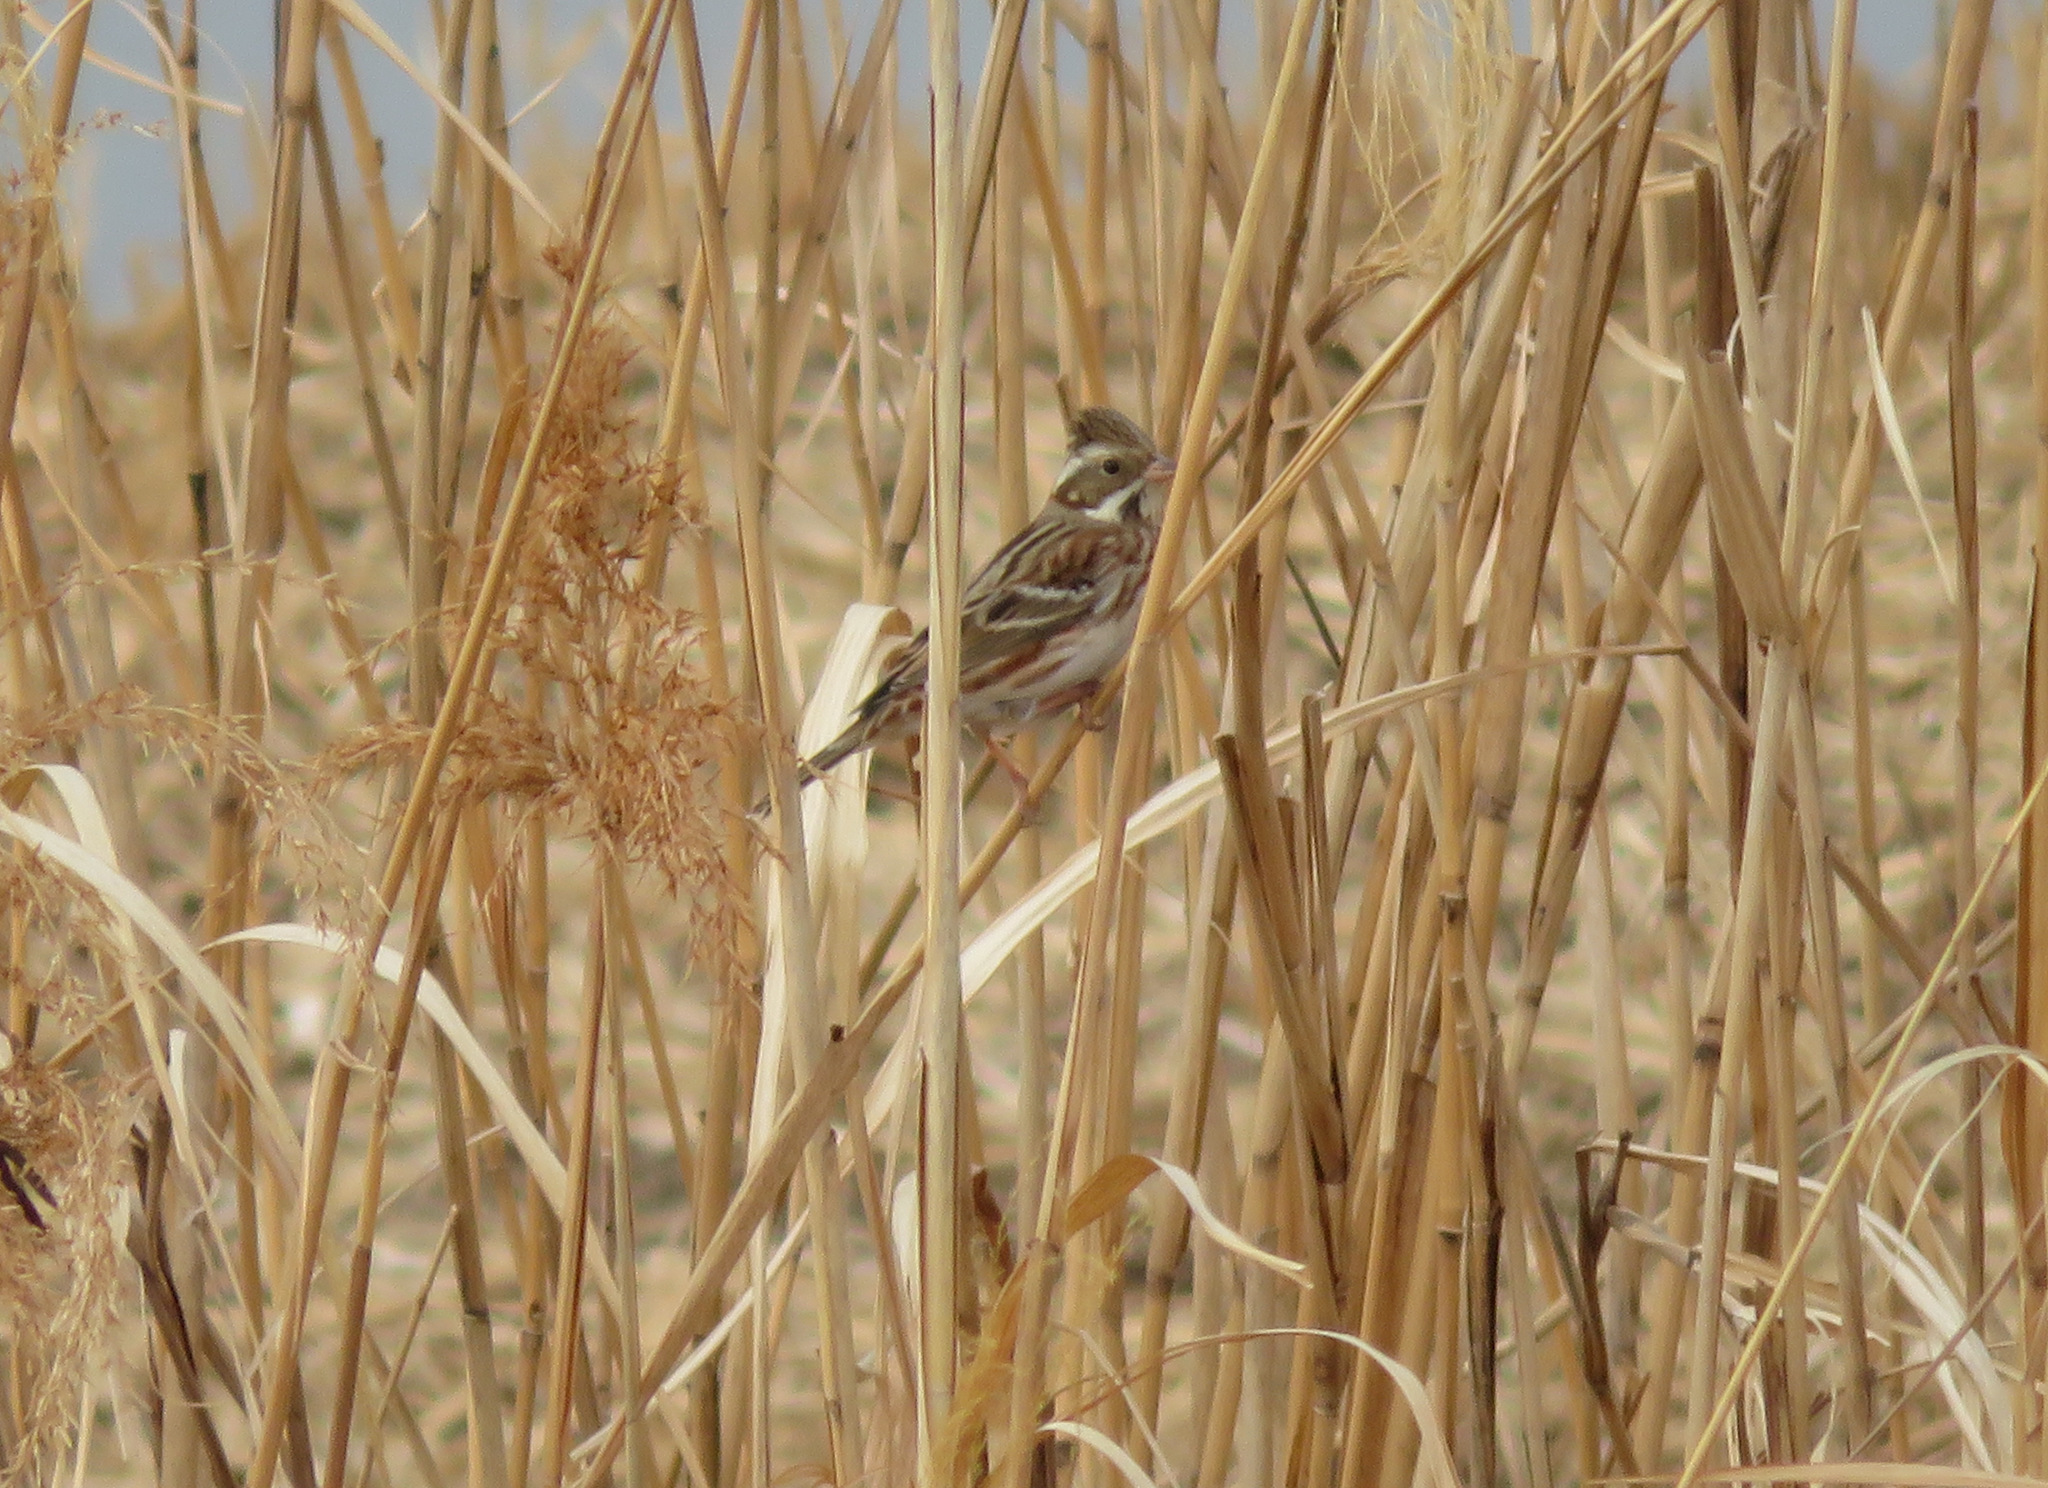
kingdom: Animalia
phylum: Chordata
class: Aves
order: Passeriformes
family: Emberizidae
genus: Emberiza
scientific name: Emberiza rustica
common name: Rustic bunting
